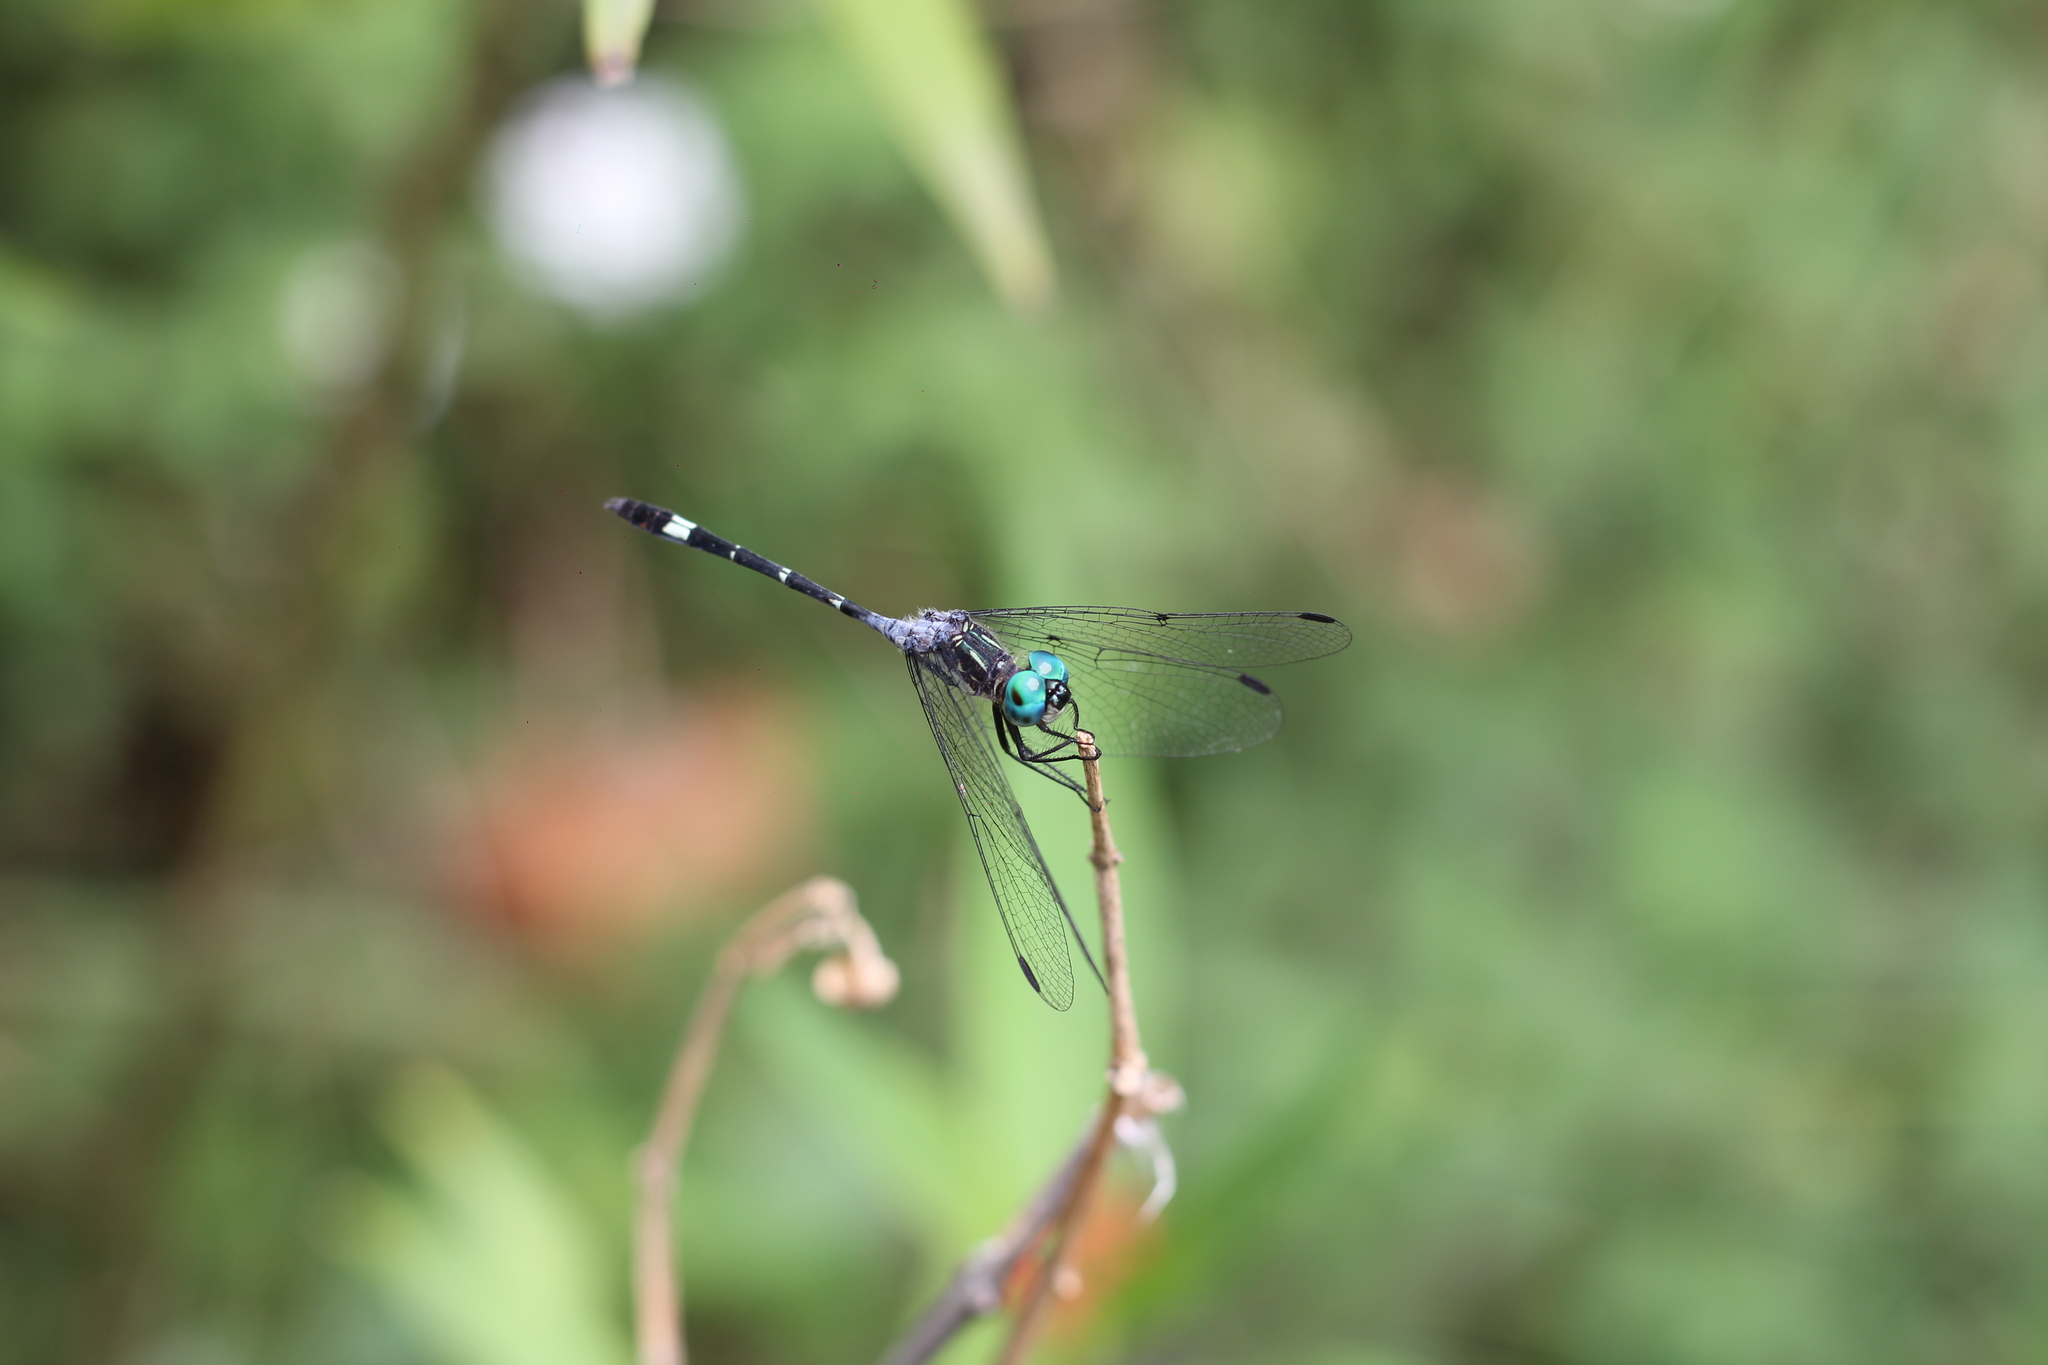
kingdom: Animalia
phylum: Arthropoda
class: Insecta
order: Odonata
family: Libellulidae
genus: Micrathyria
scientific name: Micrathyria hypodidyma
